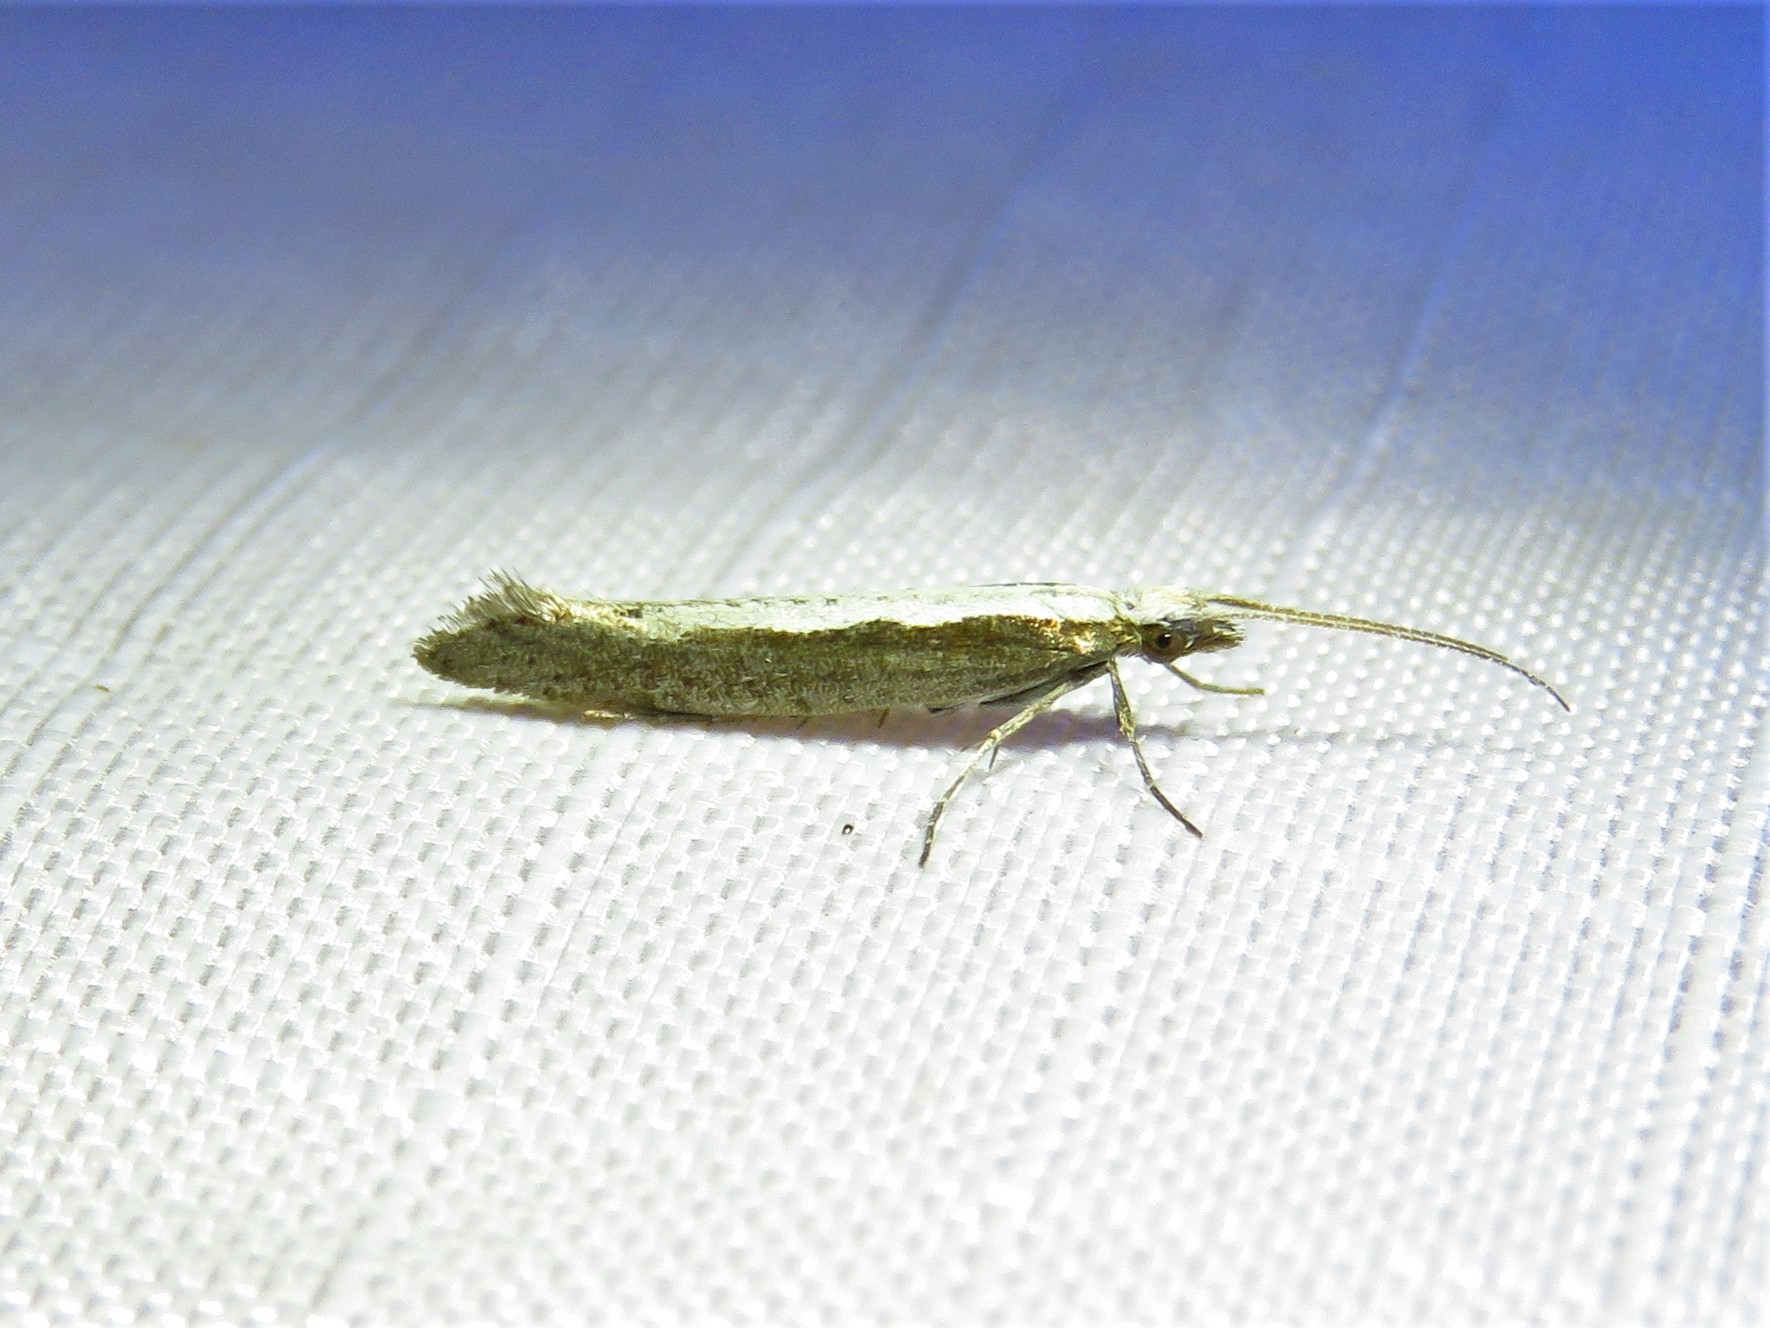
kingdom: Animalia
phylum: Arthropoda
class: Insecta
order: Lepidoptera
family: Plutellidae
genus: Plutella
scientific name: Plutella xylostella
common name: Diamond-back moth
